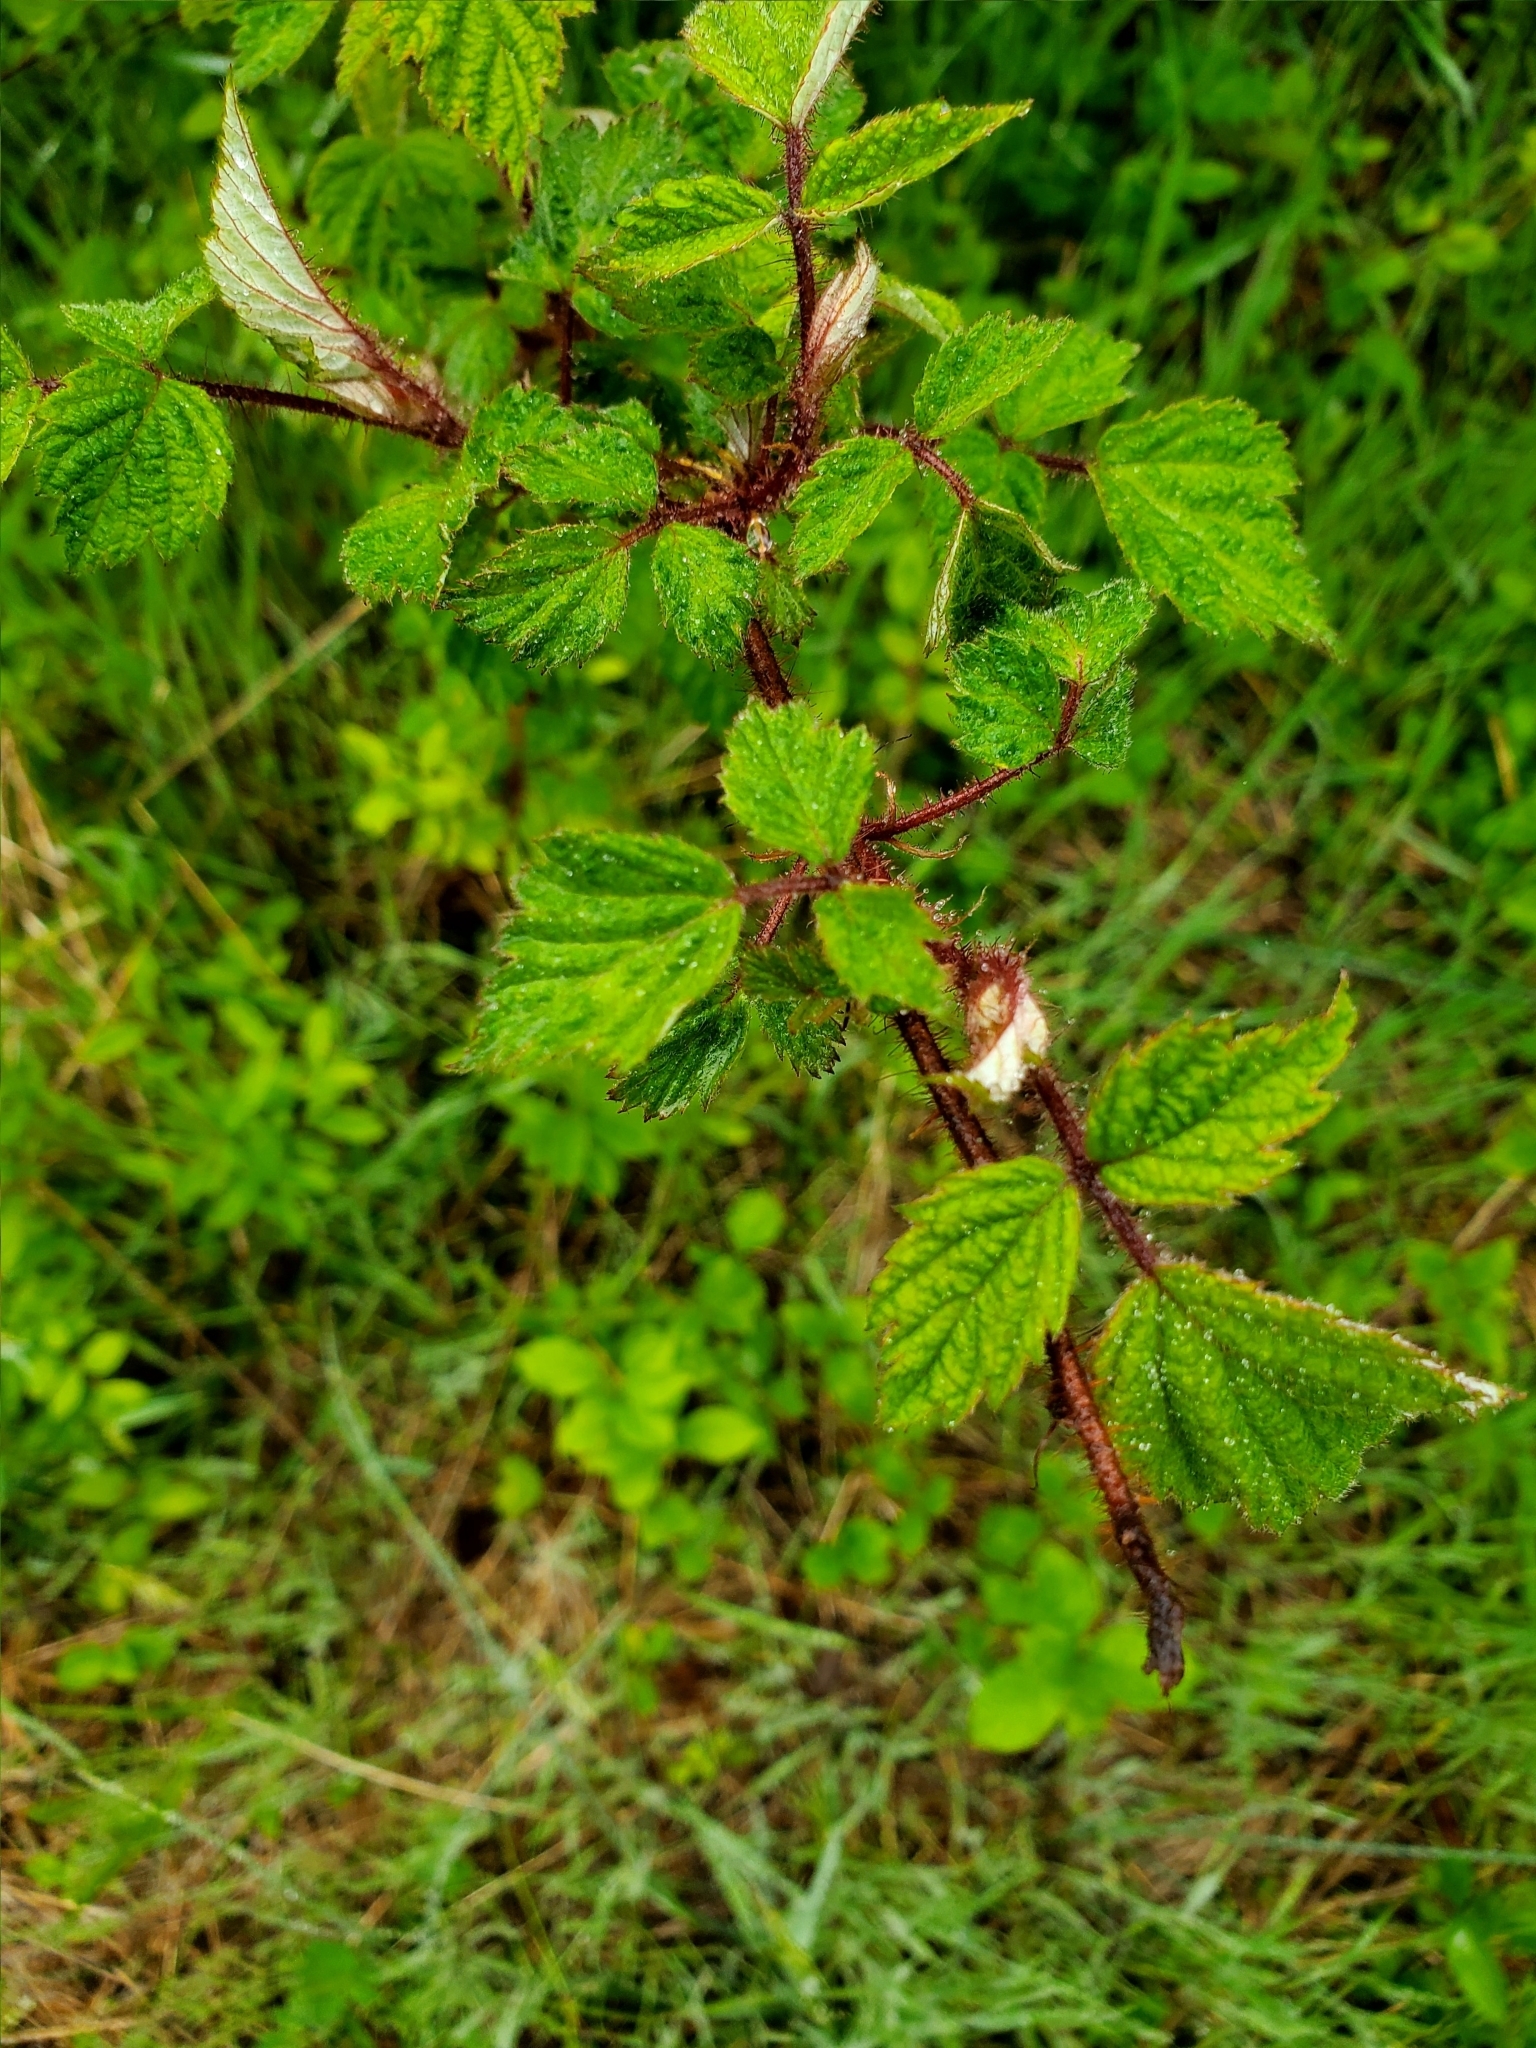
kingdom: Plantae
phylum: Tracheophyta
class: Magnoliopsida
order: Rosales
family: Rosaceae
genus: Rubus
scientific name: Rubus phoenicolasius
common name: Japanese wineberry
